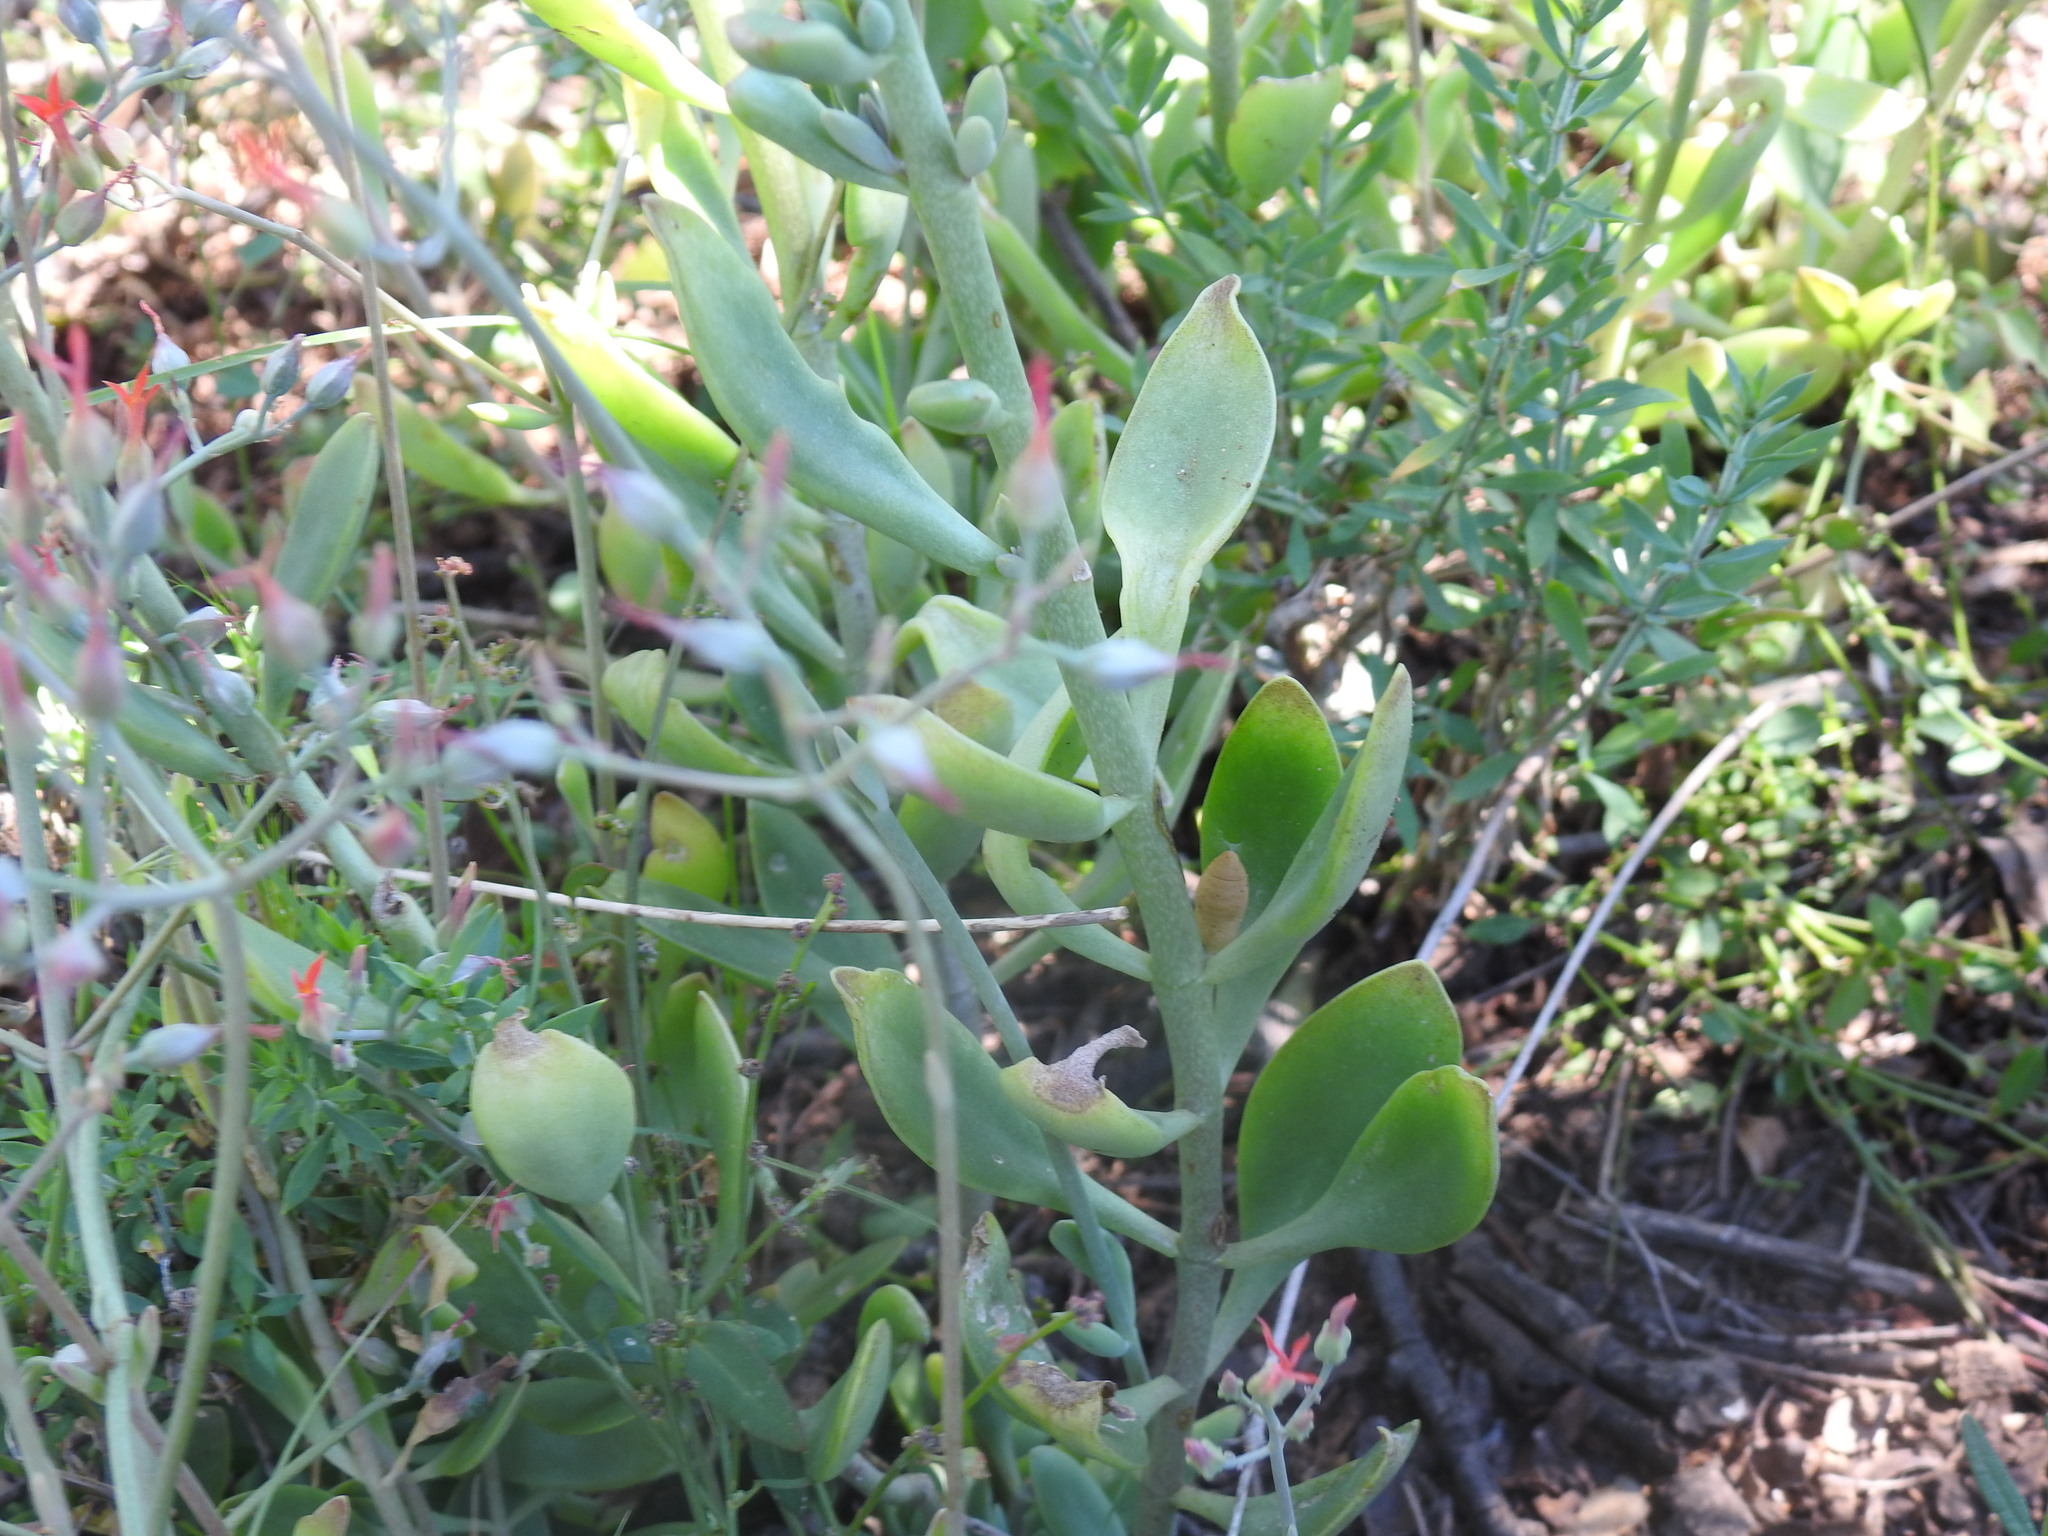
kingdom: Plantae
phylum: Tracheophyta
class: Magnoliopsida
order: Saxifragales
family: Crassulaceae
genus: Kalanchoe
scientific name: Kalanchoe rotundifolia
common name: Common kalanchoe
